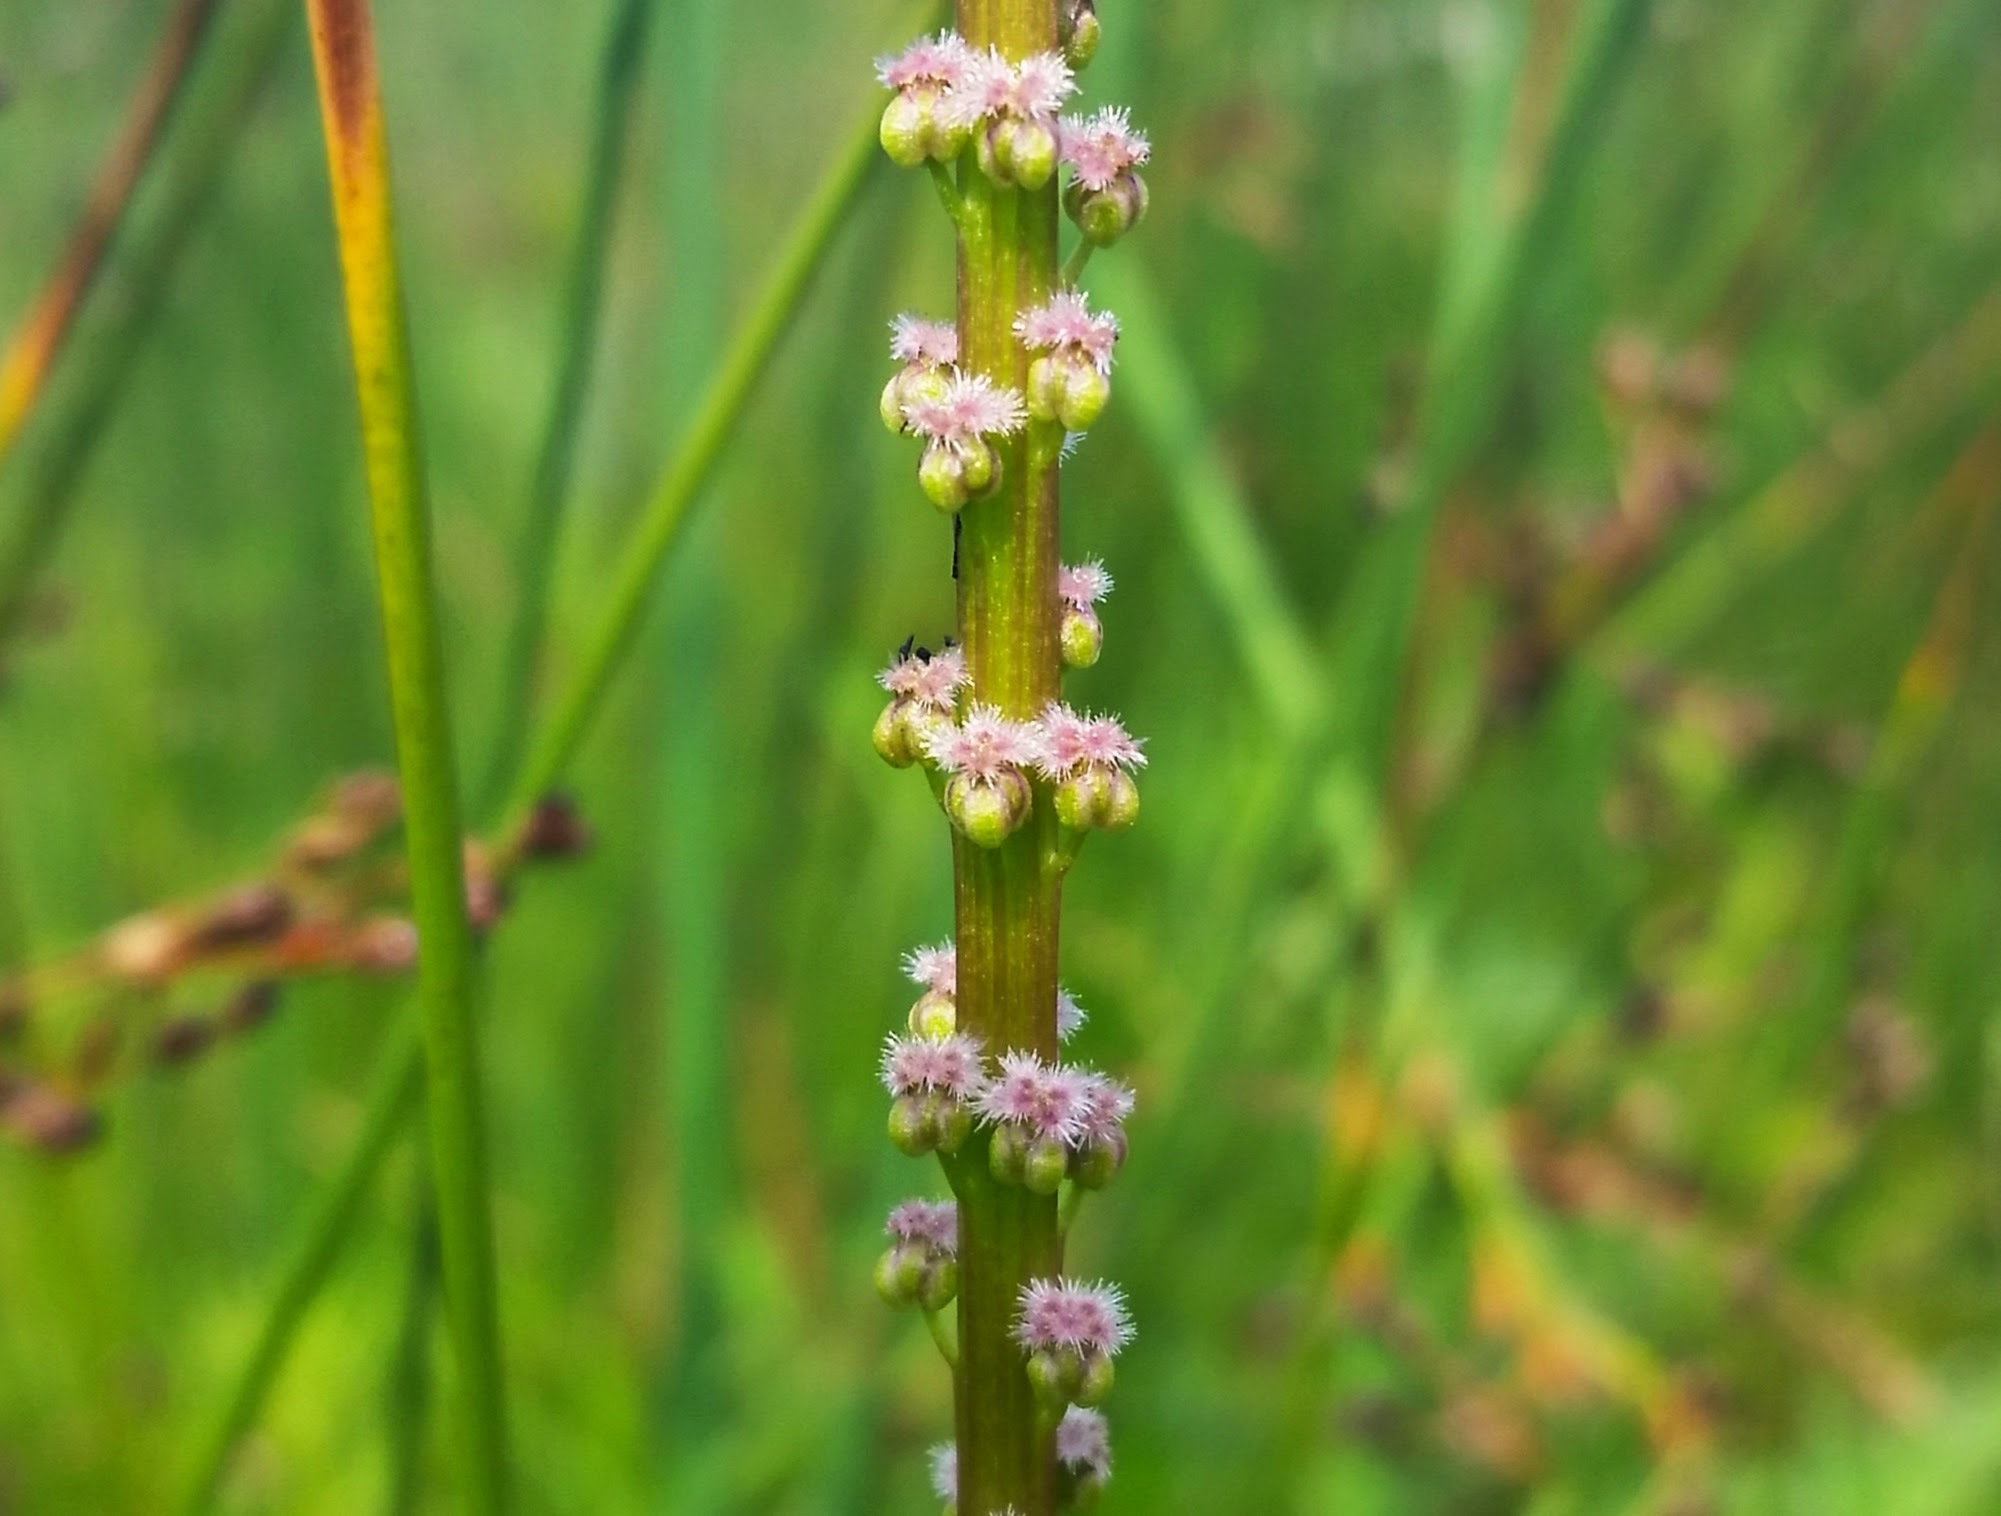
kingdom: Plantae
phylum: Tracheophyta
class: Liliopsida
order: Alismatales
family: Juncaginaceae
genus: Triglochin
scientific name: Triglochin maritima
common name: Sea arrowgrass
